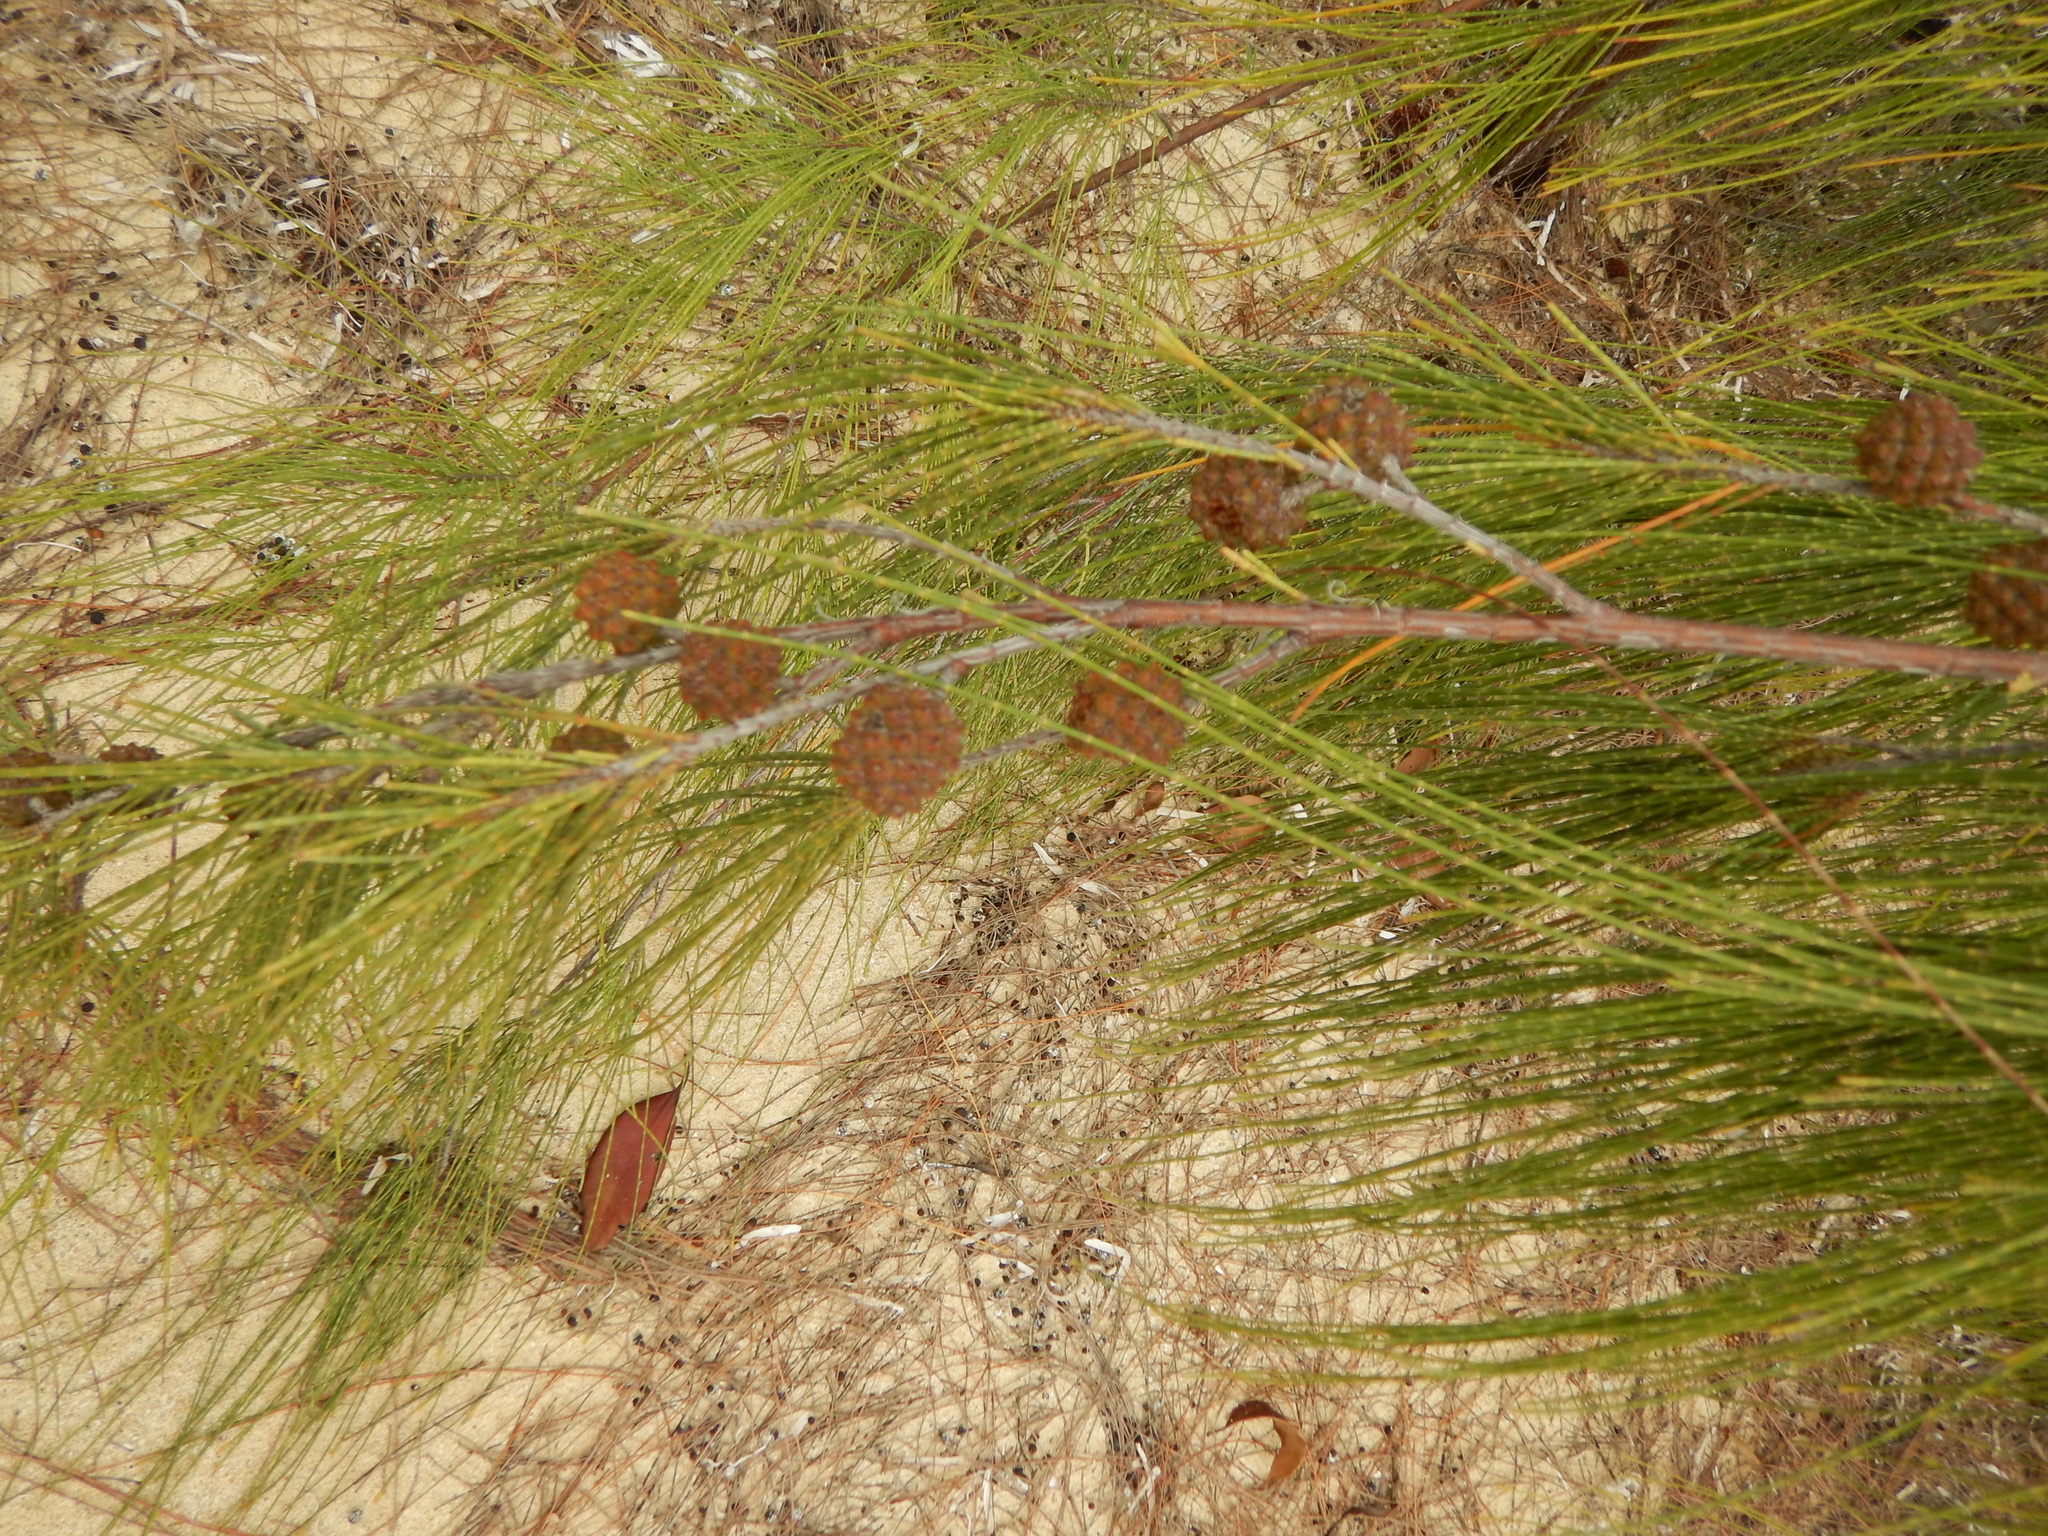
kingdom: Plantae
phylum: Tracheophyta
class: Magnoliopsida
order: Fagales
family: Casuarinaceae
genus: Casuarina
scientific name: Casuarina equisetifolia
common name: Beach sheoak
